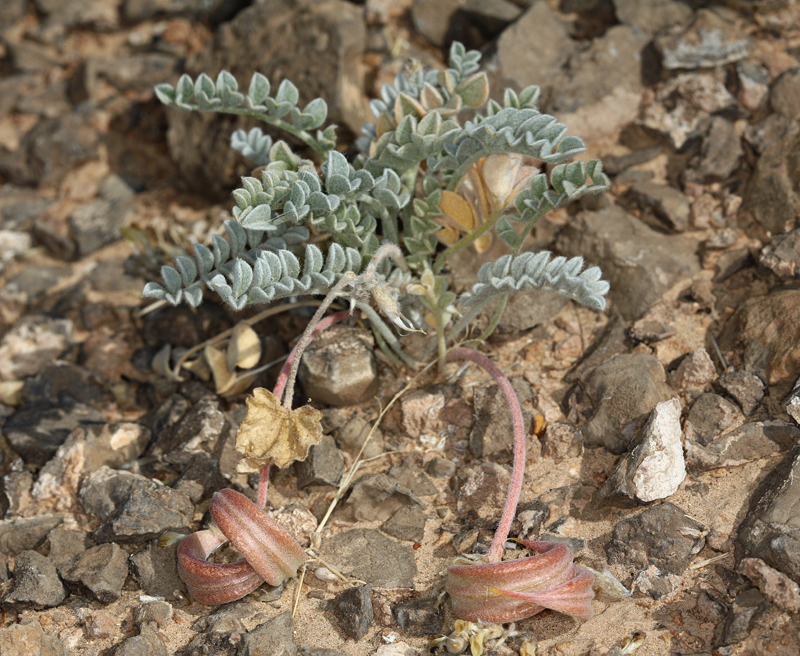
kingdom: Plantae
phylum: Tracheophyta
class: Magnoliopsida
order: Fabales
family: Fabaceae
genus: Astragalus
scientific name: Astragalus tidestromii
